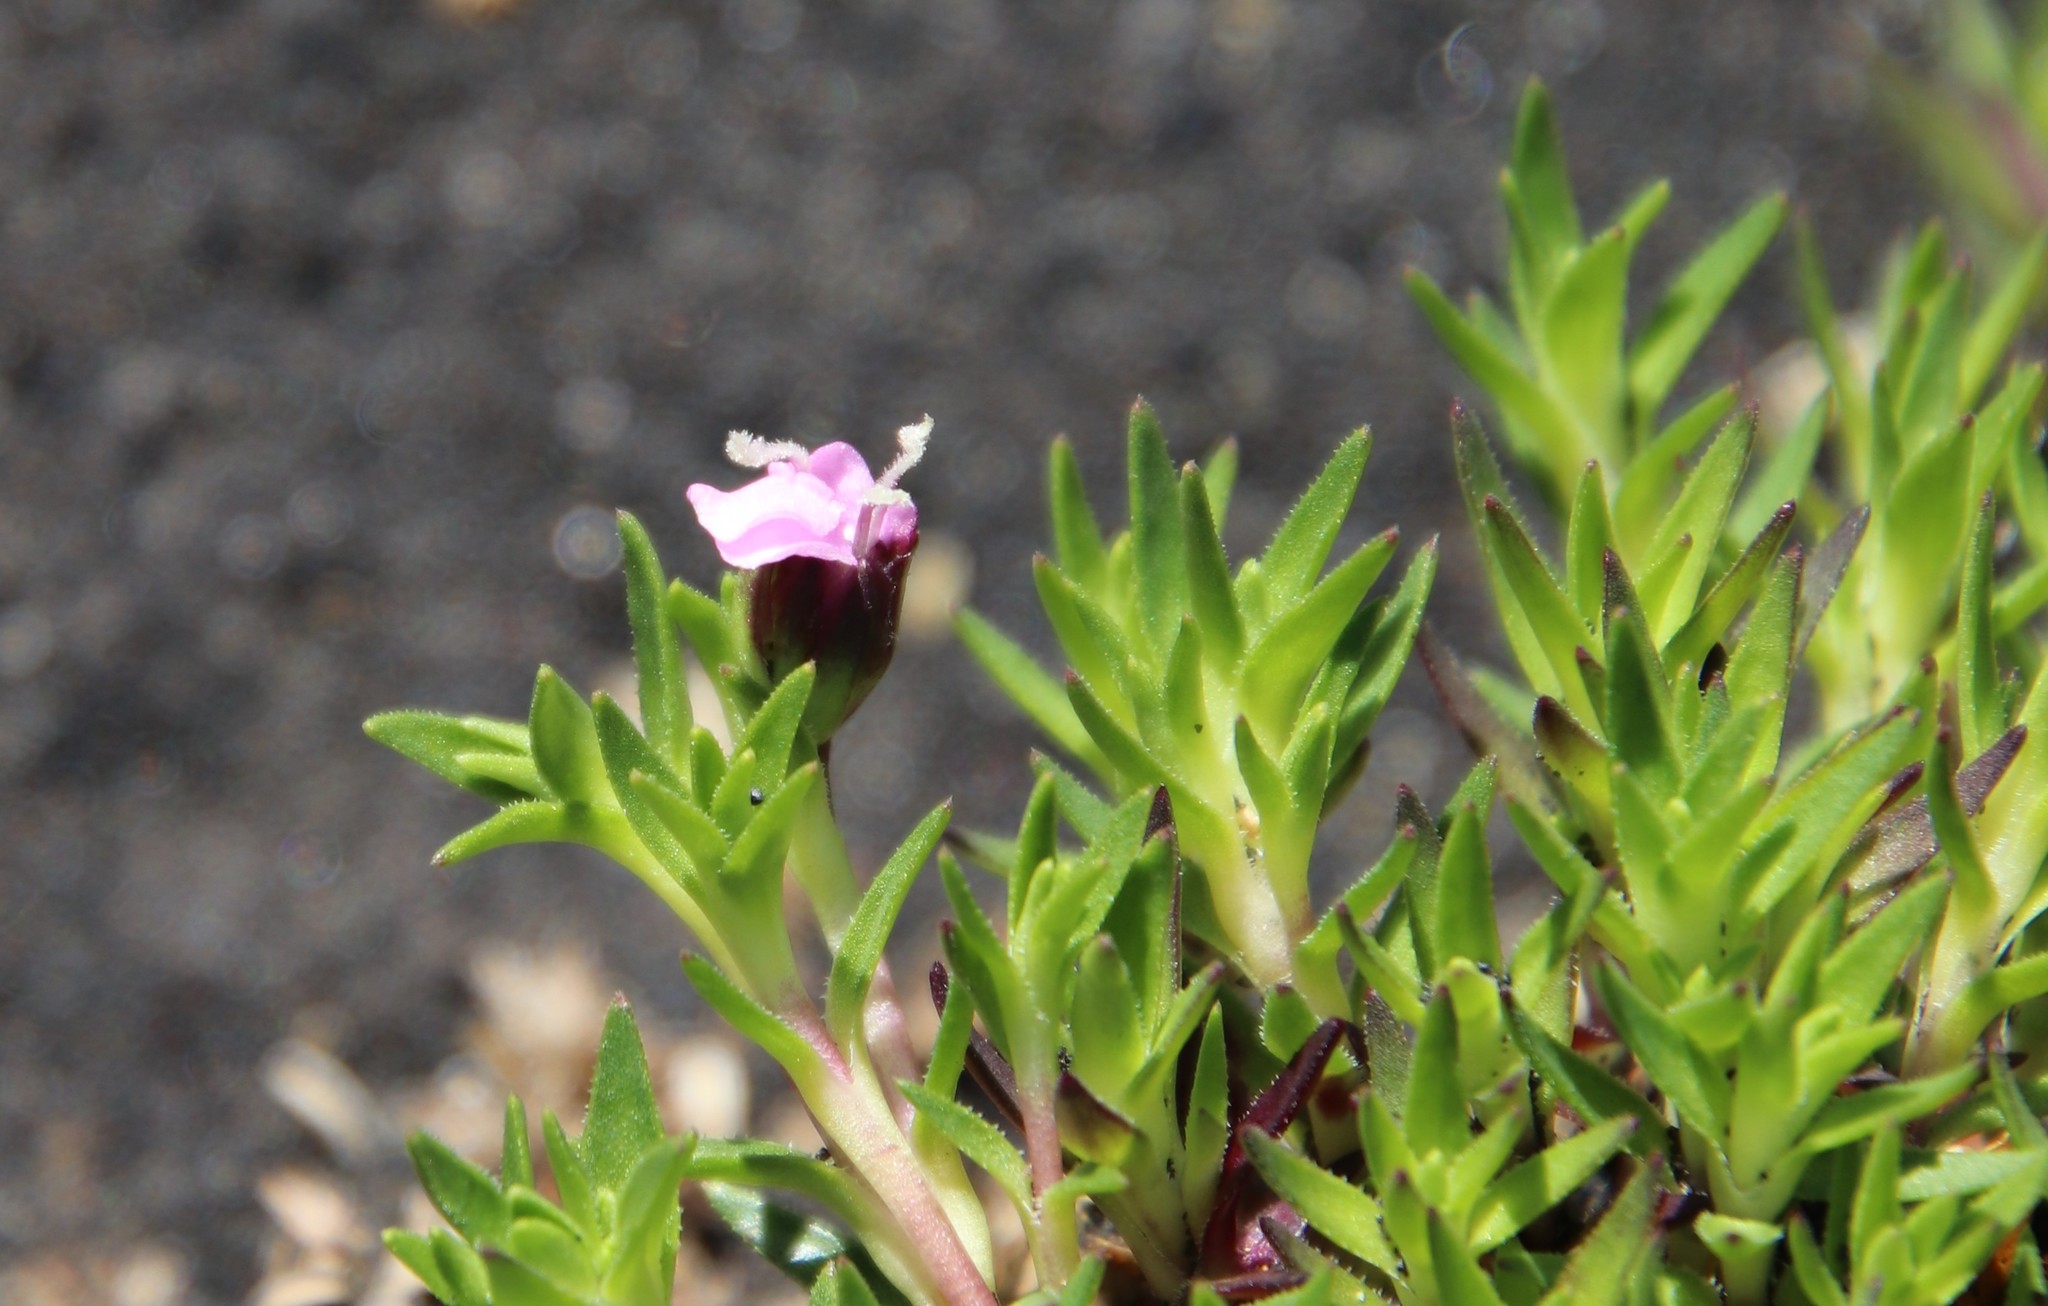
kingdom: Plantae
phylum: Tracheophyta
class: Magnoliopsida
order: Caryophyllales
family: Caryophyllaceae
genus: Silene
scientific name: Silene acaulis
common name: Moss campion
